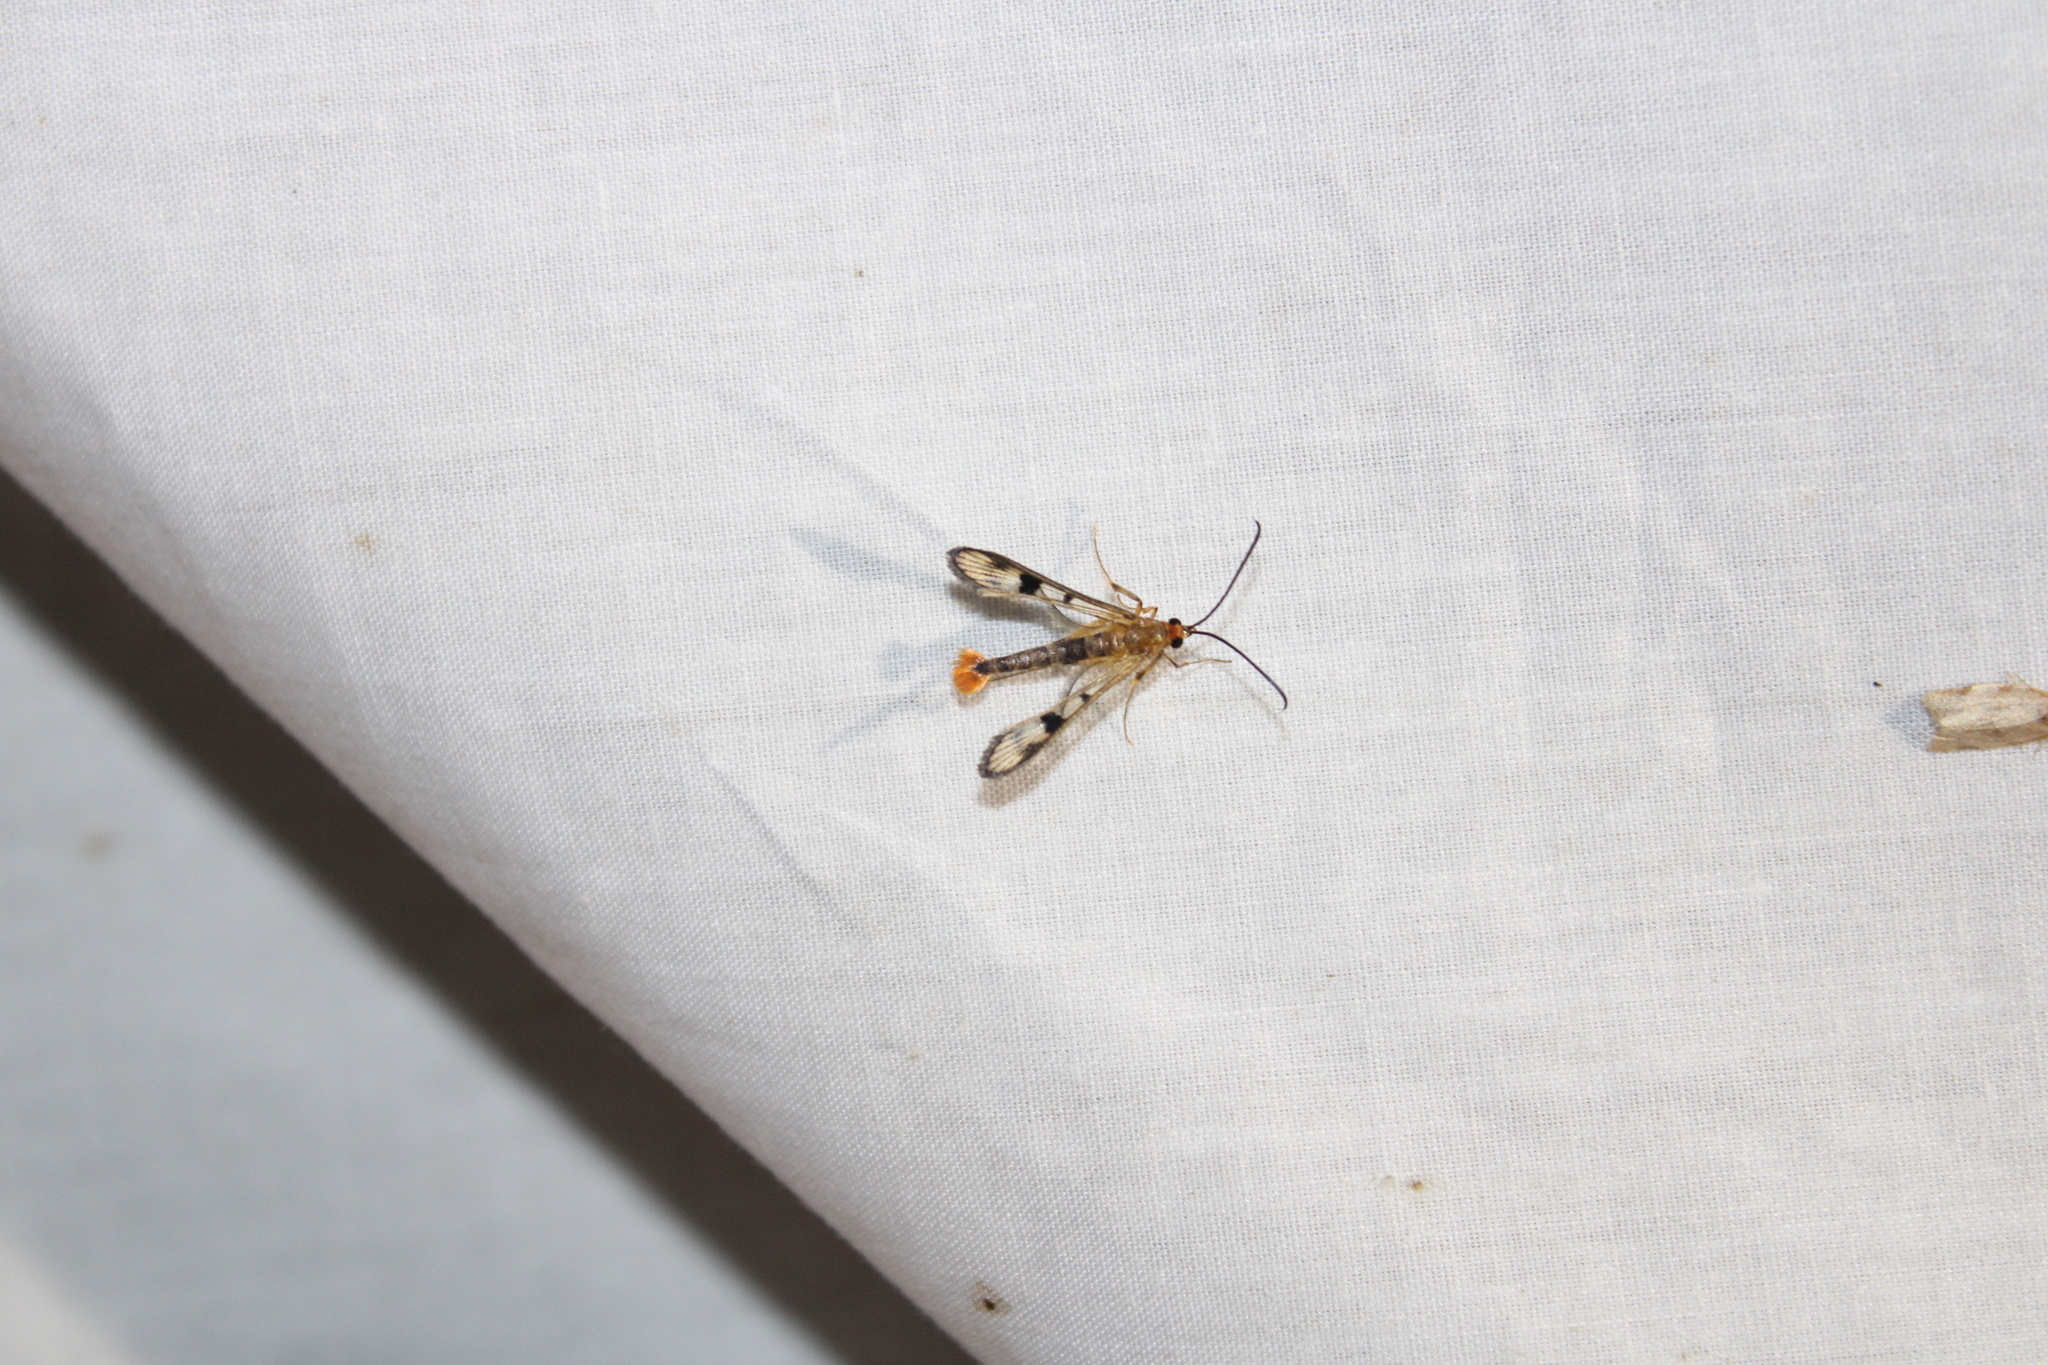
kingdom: Animalia
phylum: Arthropoda
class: Insecta
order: Lepidoptera
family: Sesiidae
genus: Synanthedon
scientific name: Synanthedon acerni
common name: Maple callus borer moth
